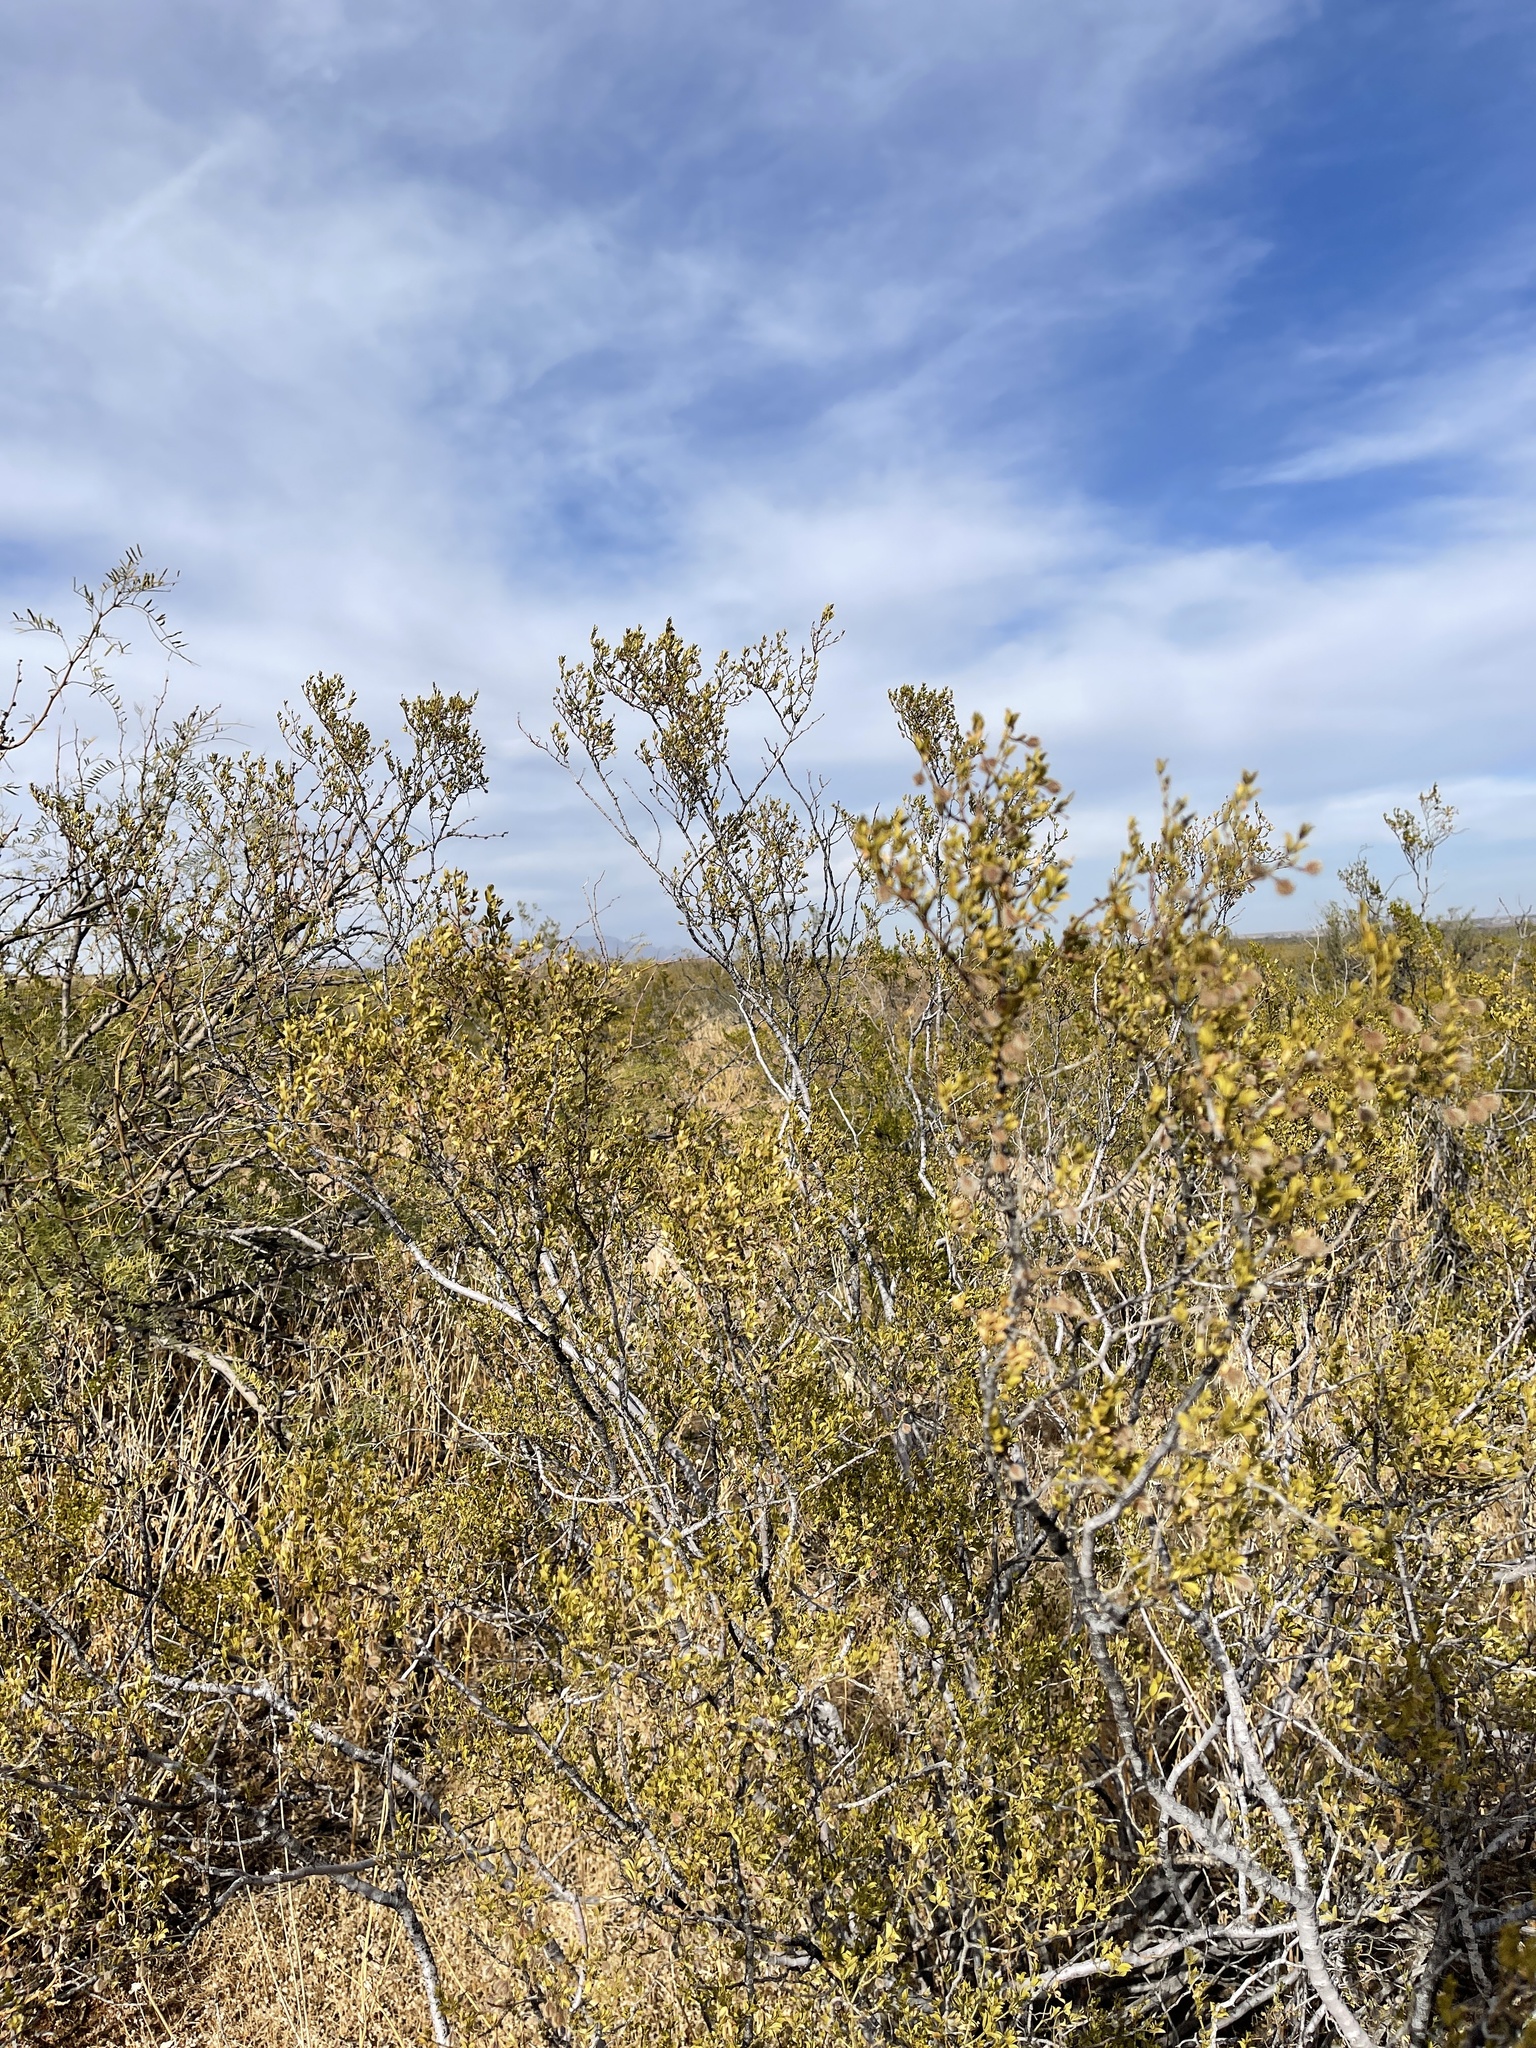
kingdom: Plantae
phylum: Tracheophyta
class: Magnoliopsida
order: Zygophyllales
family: Zygophyllaceae
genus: Larrea
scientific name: Larrea tridentata
